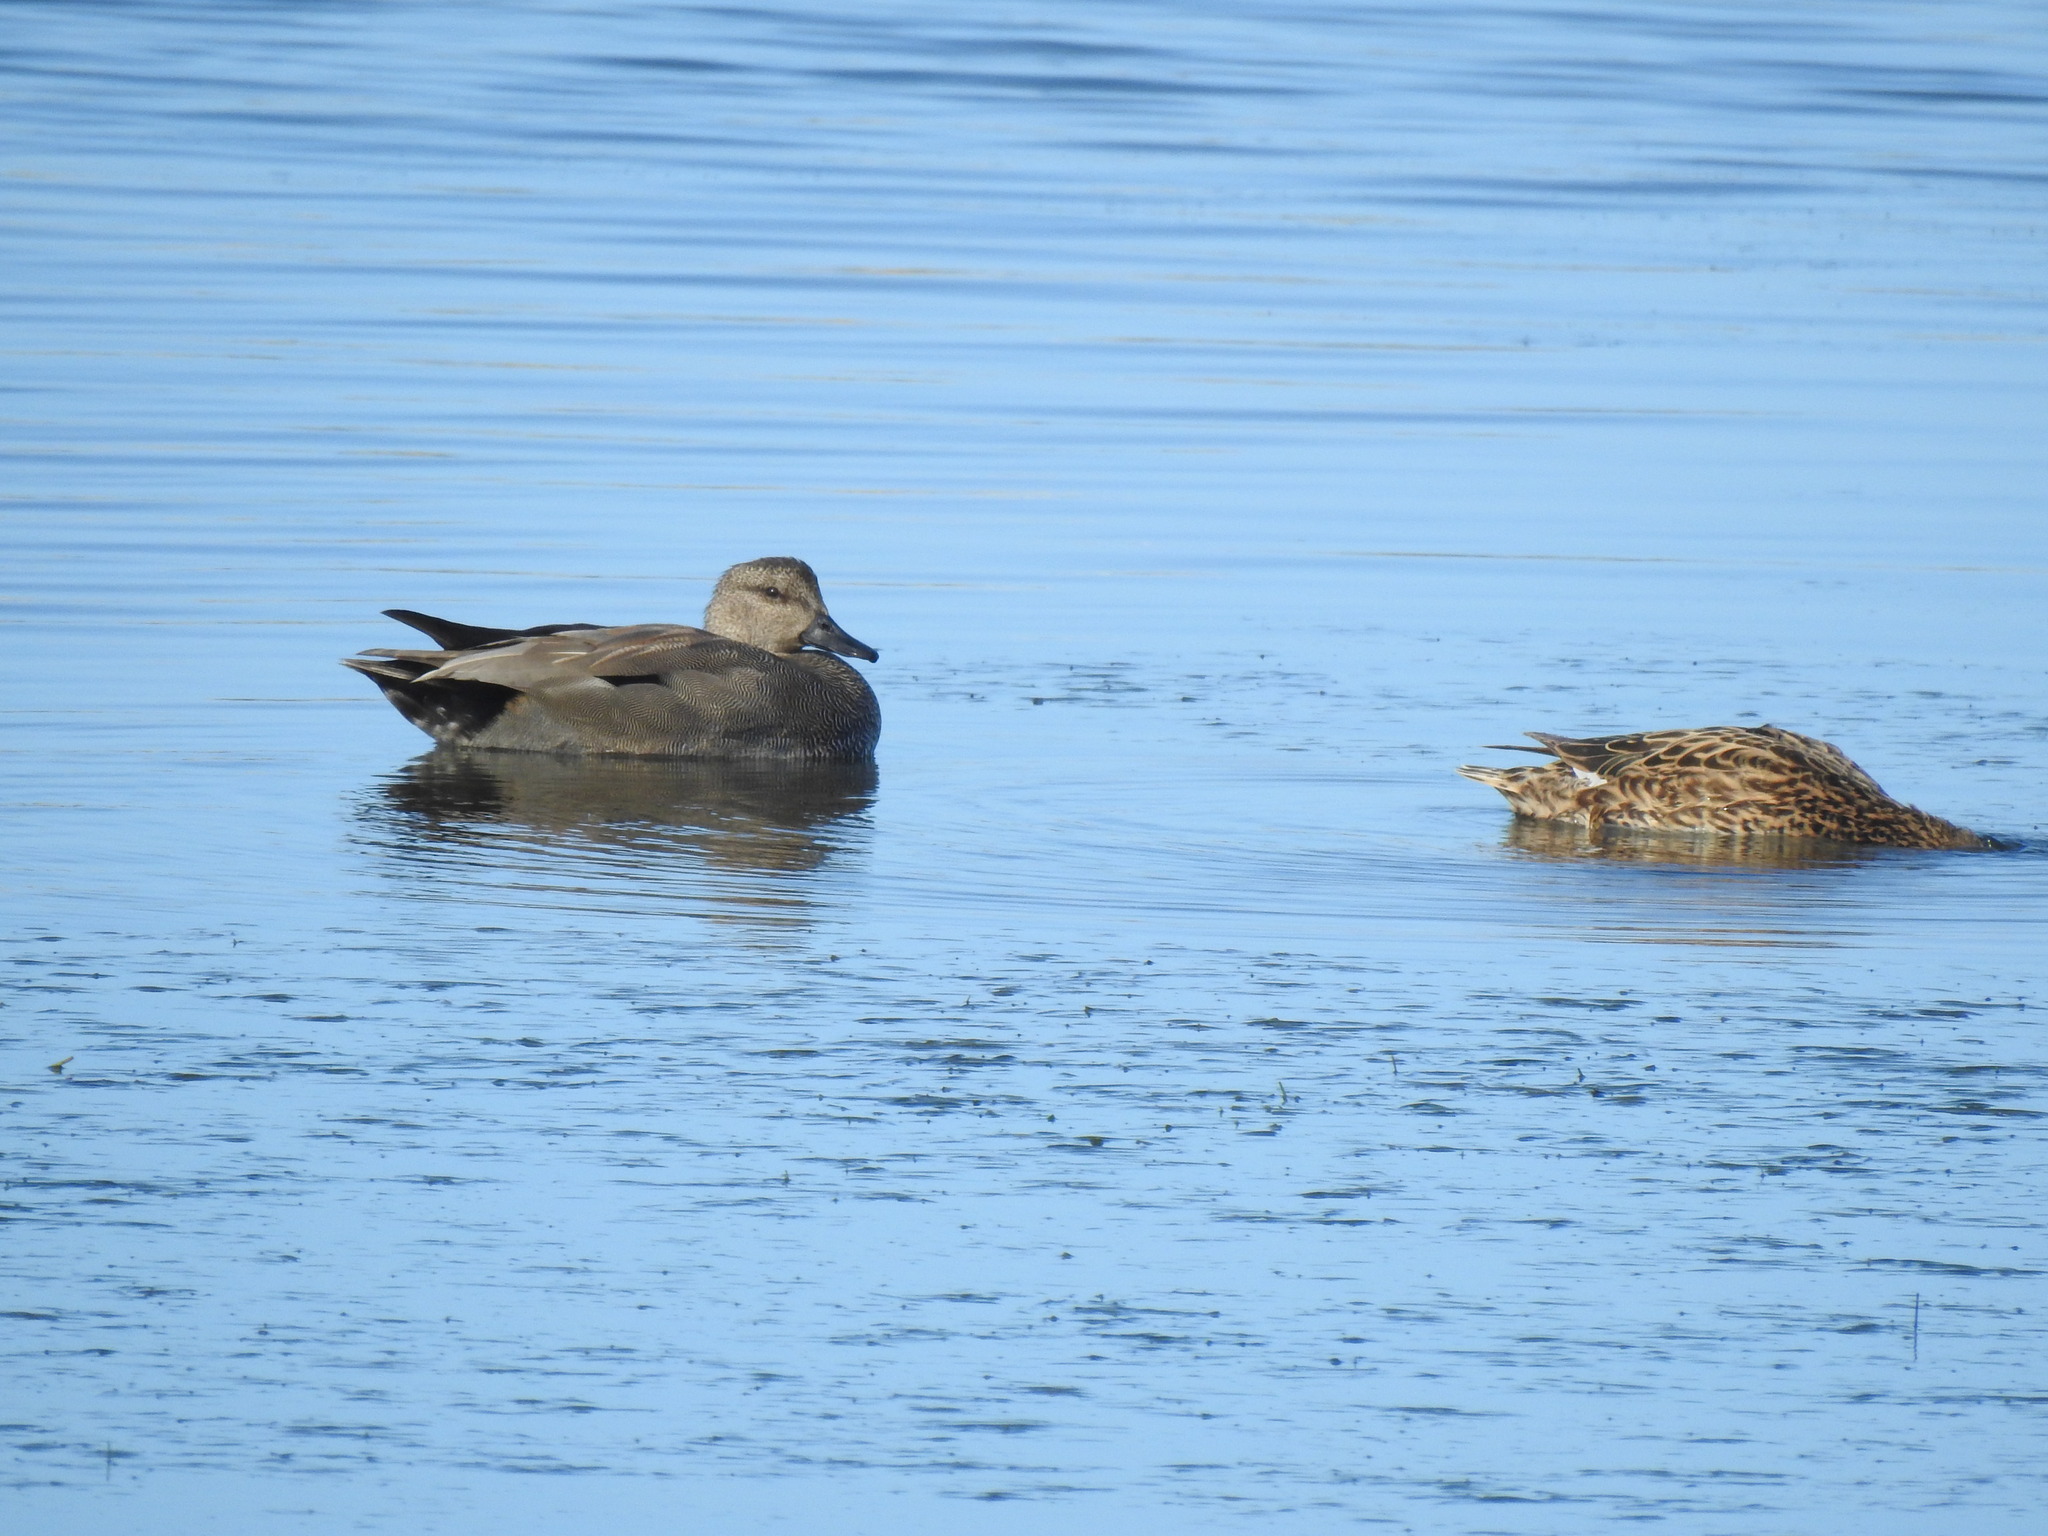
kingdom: Animalia
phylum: Chordata
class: Aves
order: Anseriformes
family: Anatidae
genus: Mareca
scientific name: Mareca strepera
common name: Gadwall
